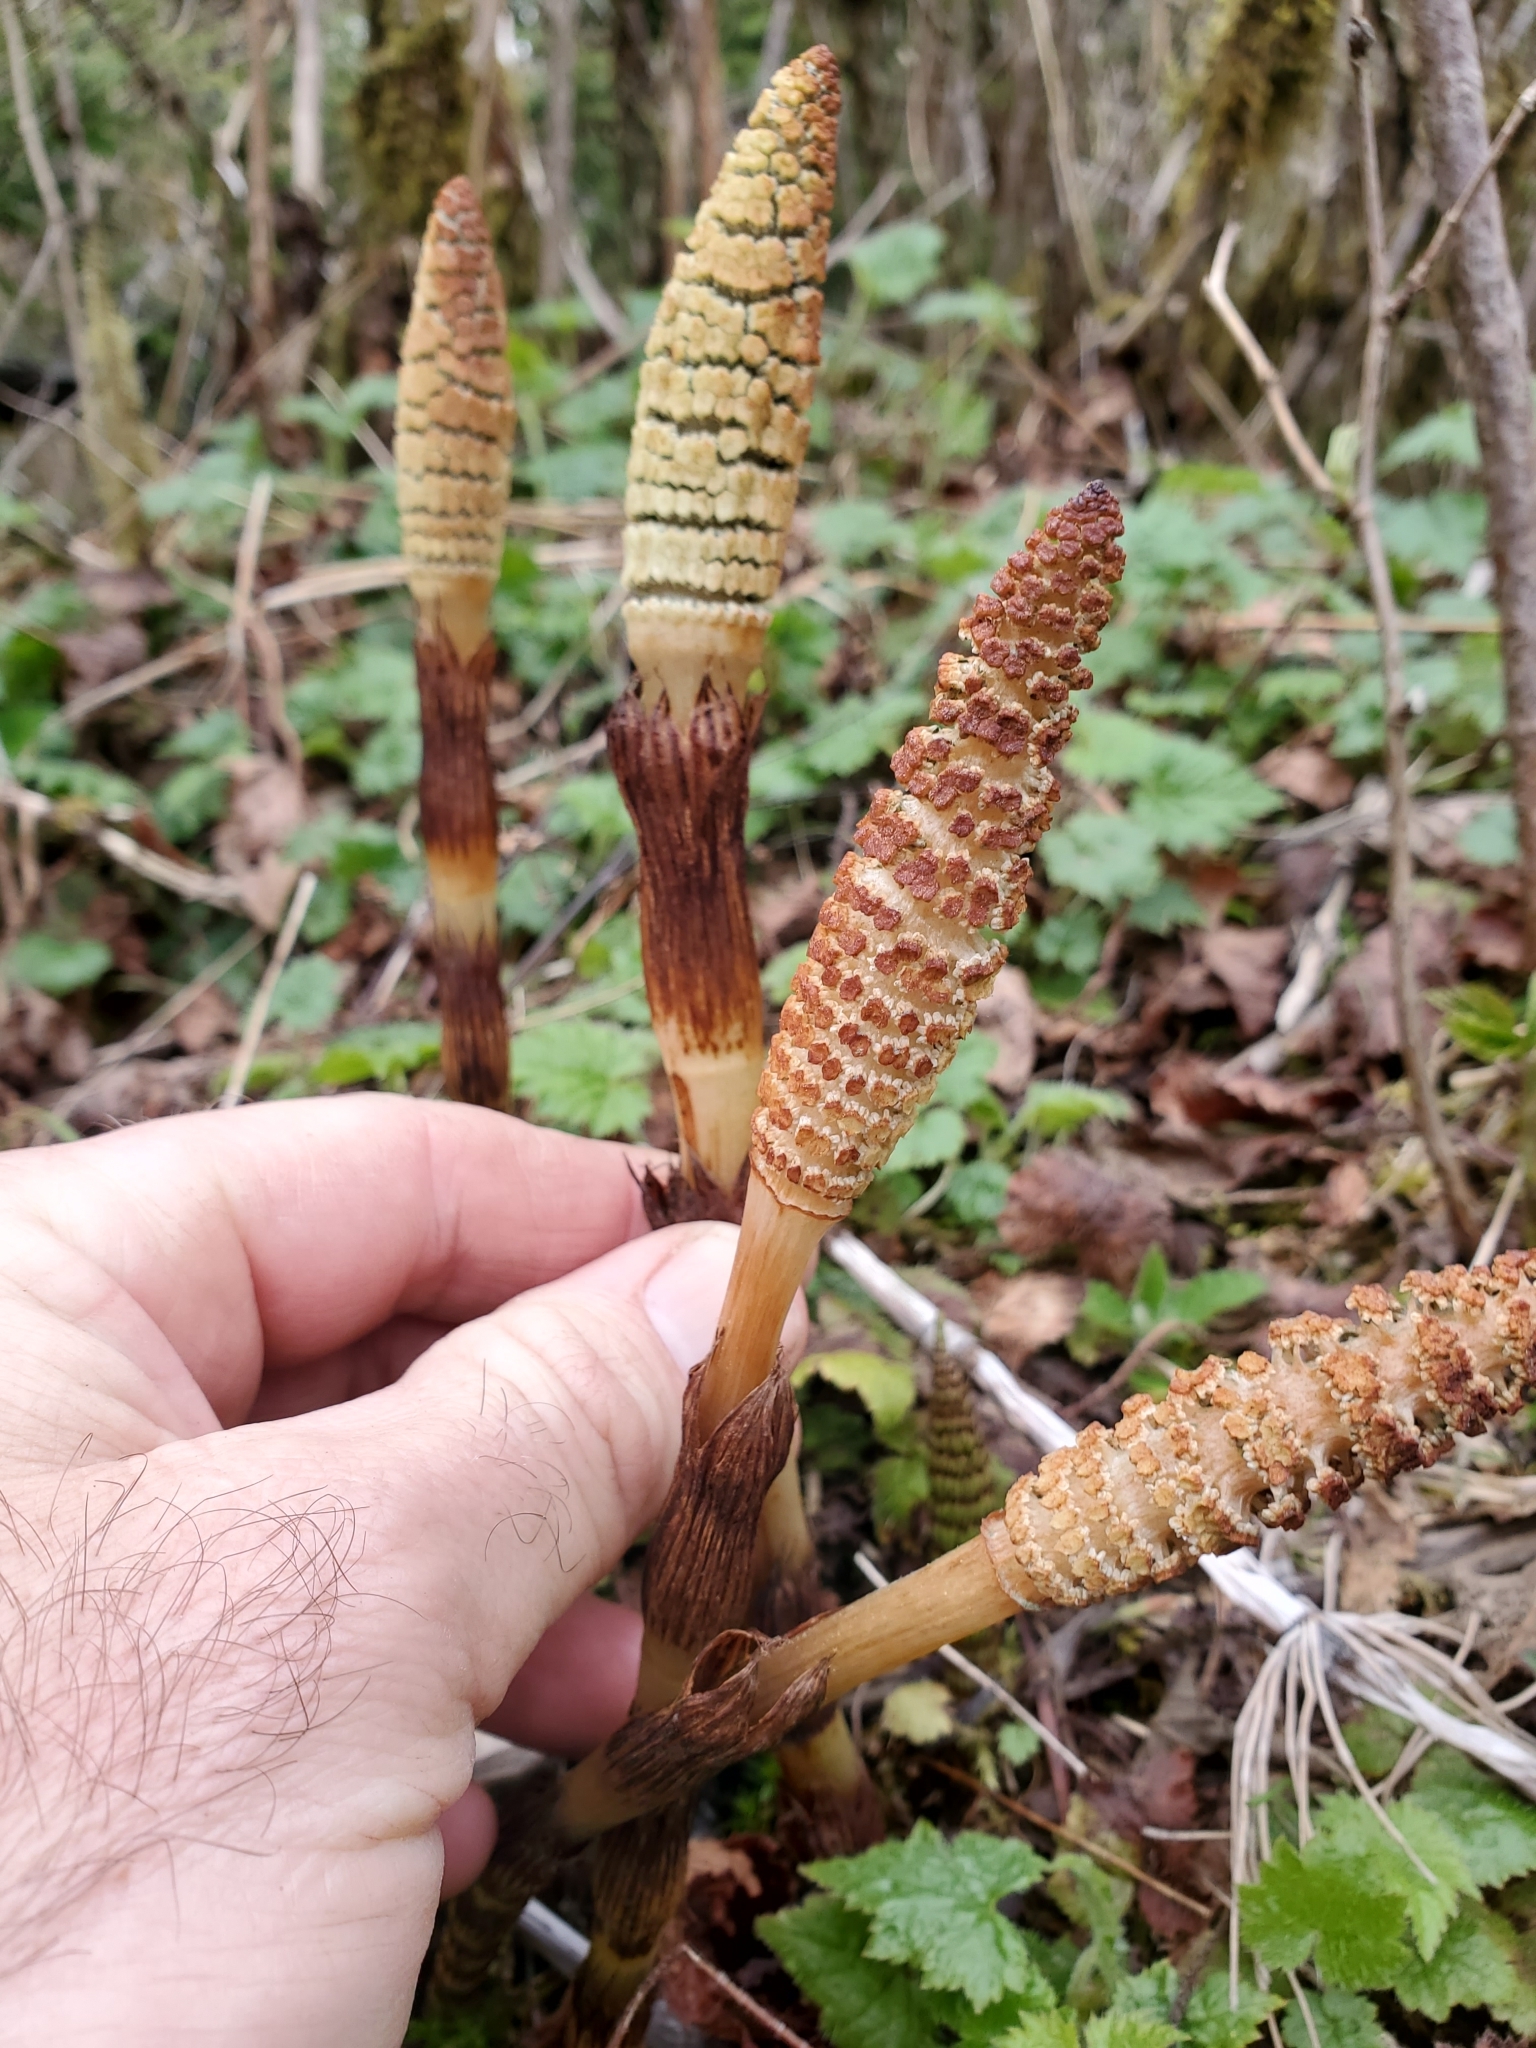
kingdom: Plantae
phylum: Tracheophyta
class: Polypodiopsida
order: Equisetales
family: Equisetaceae
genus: Equisetum
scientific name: Equisetum telmateia
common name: Great horsetail
